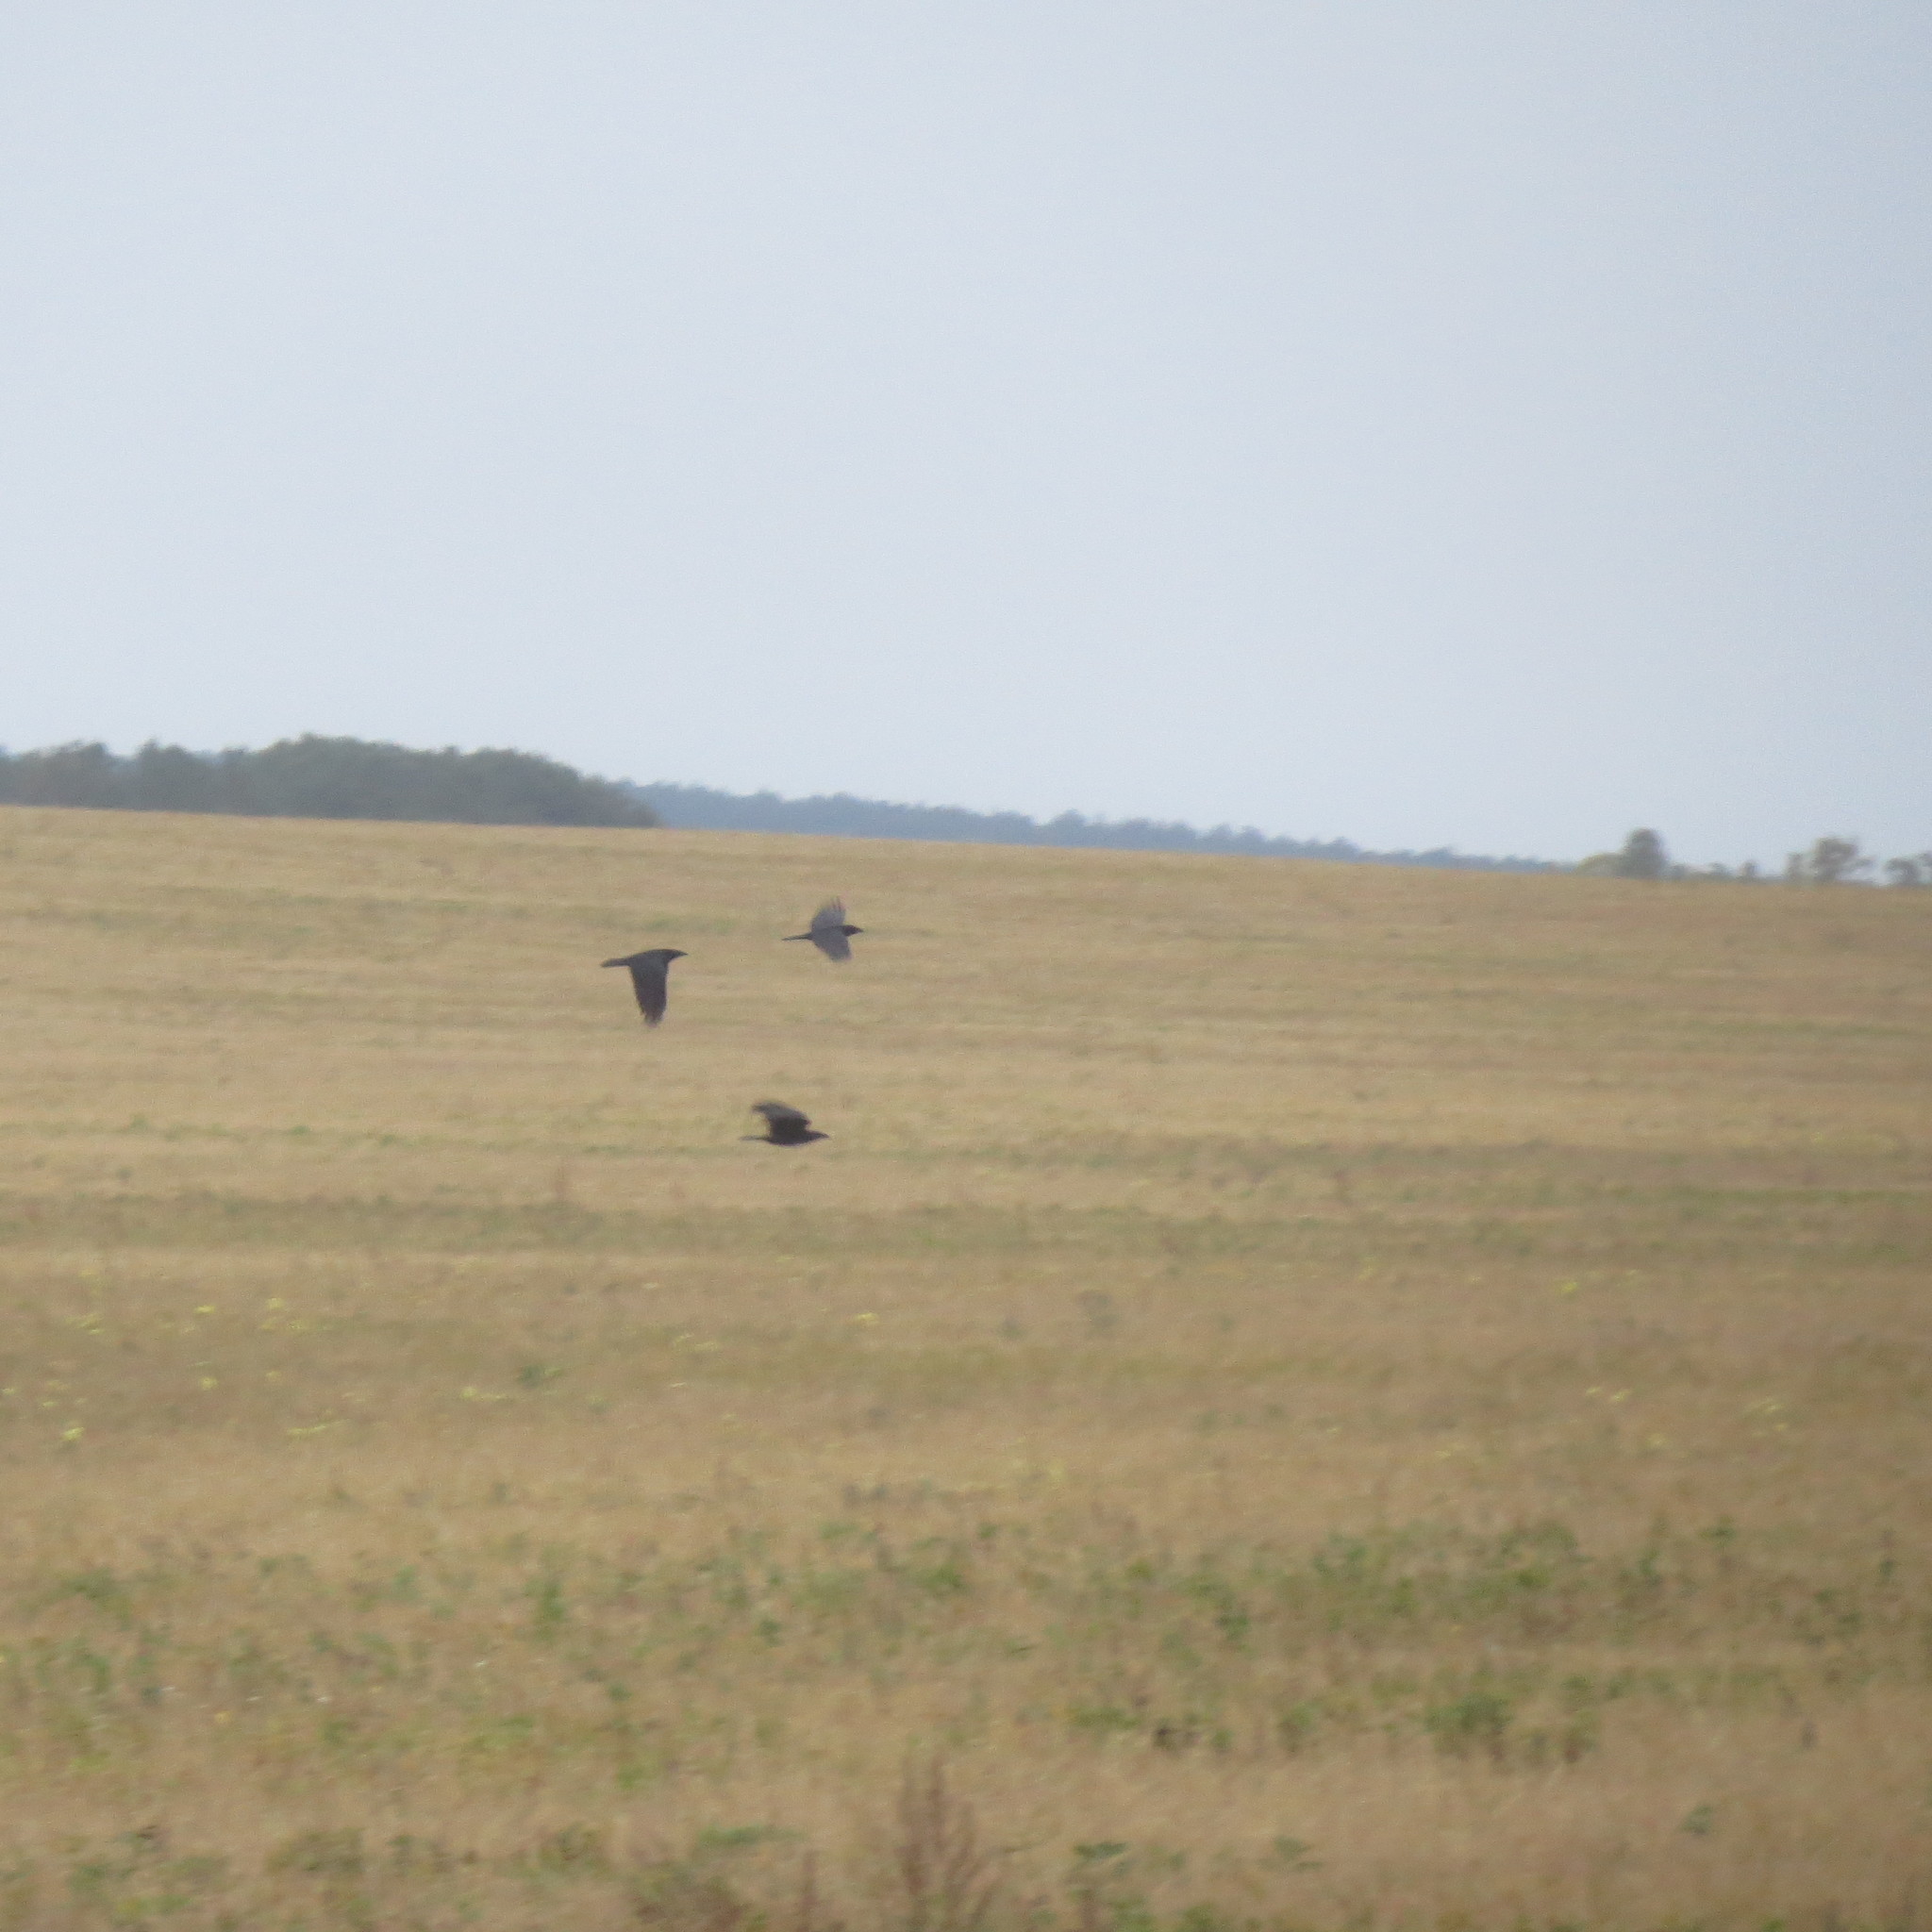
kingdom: Animalia
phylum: Chordata
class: Aves
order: Passeriformes
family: Corvidae
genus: Corvus
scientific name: Corvus corax
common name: Common raven
